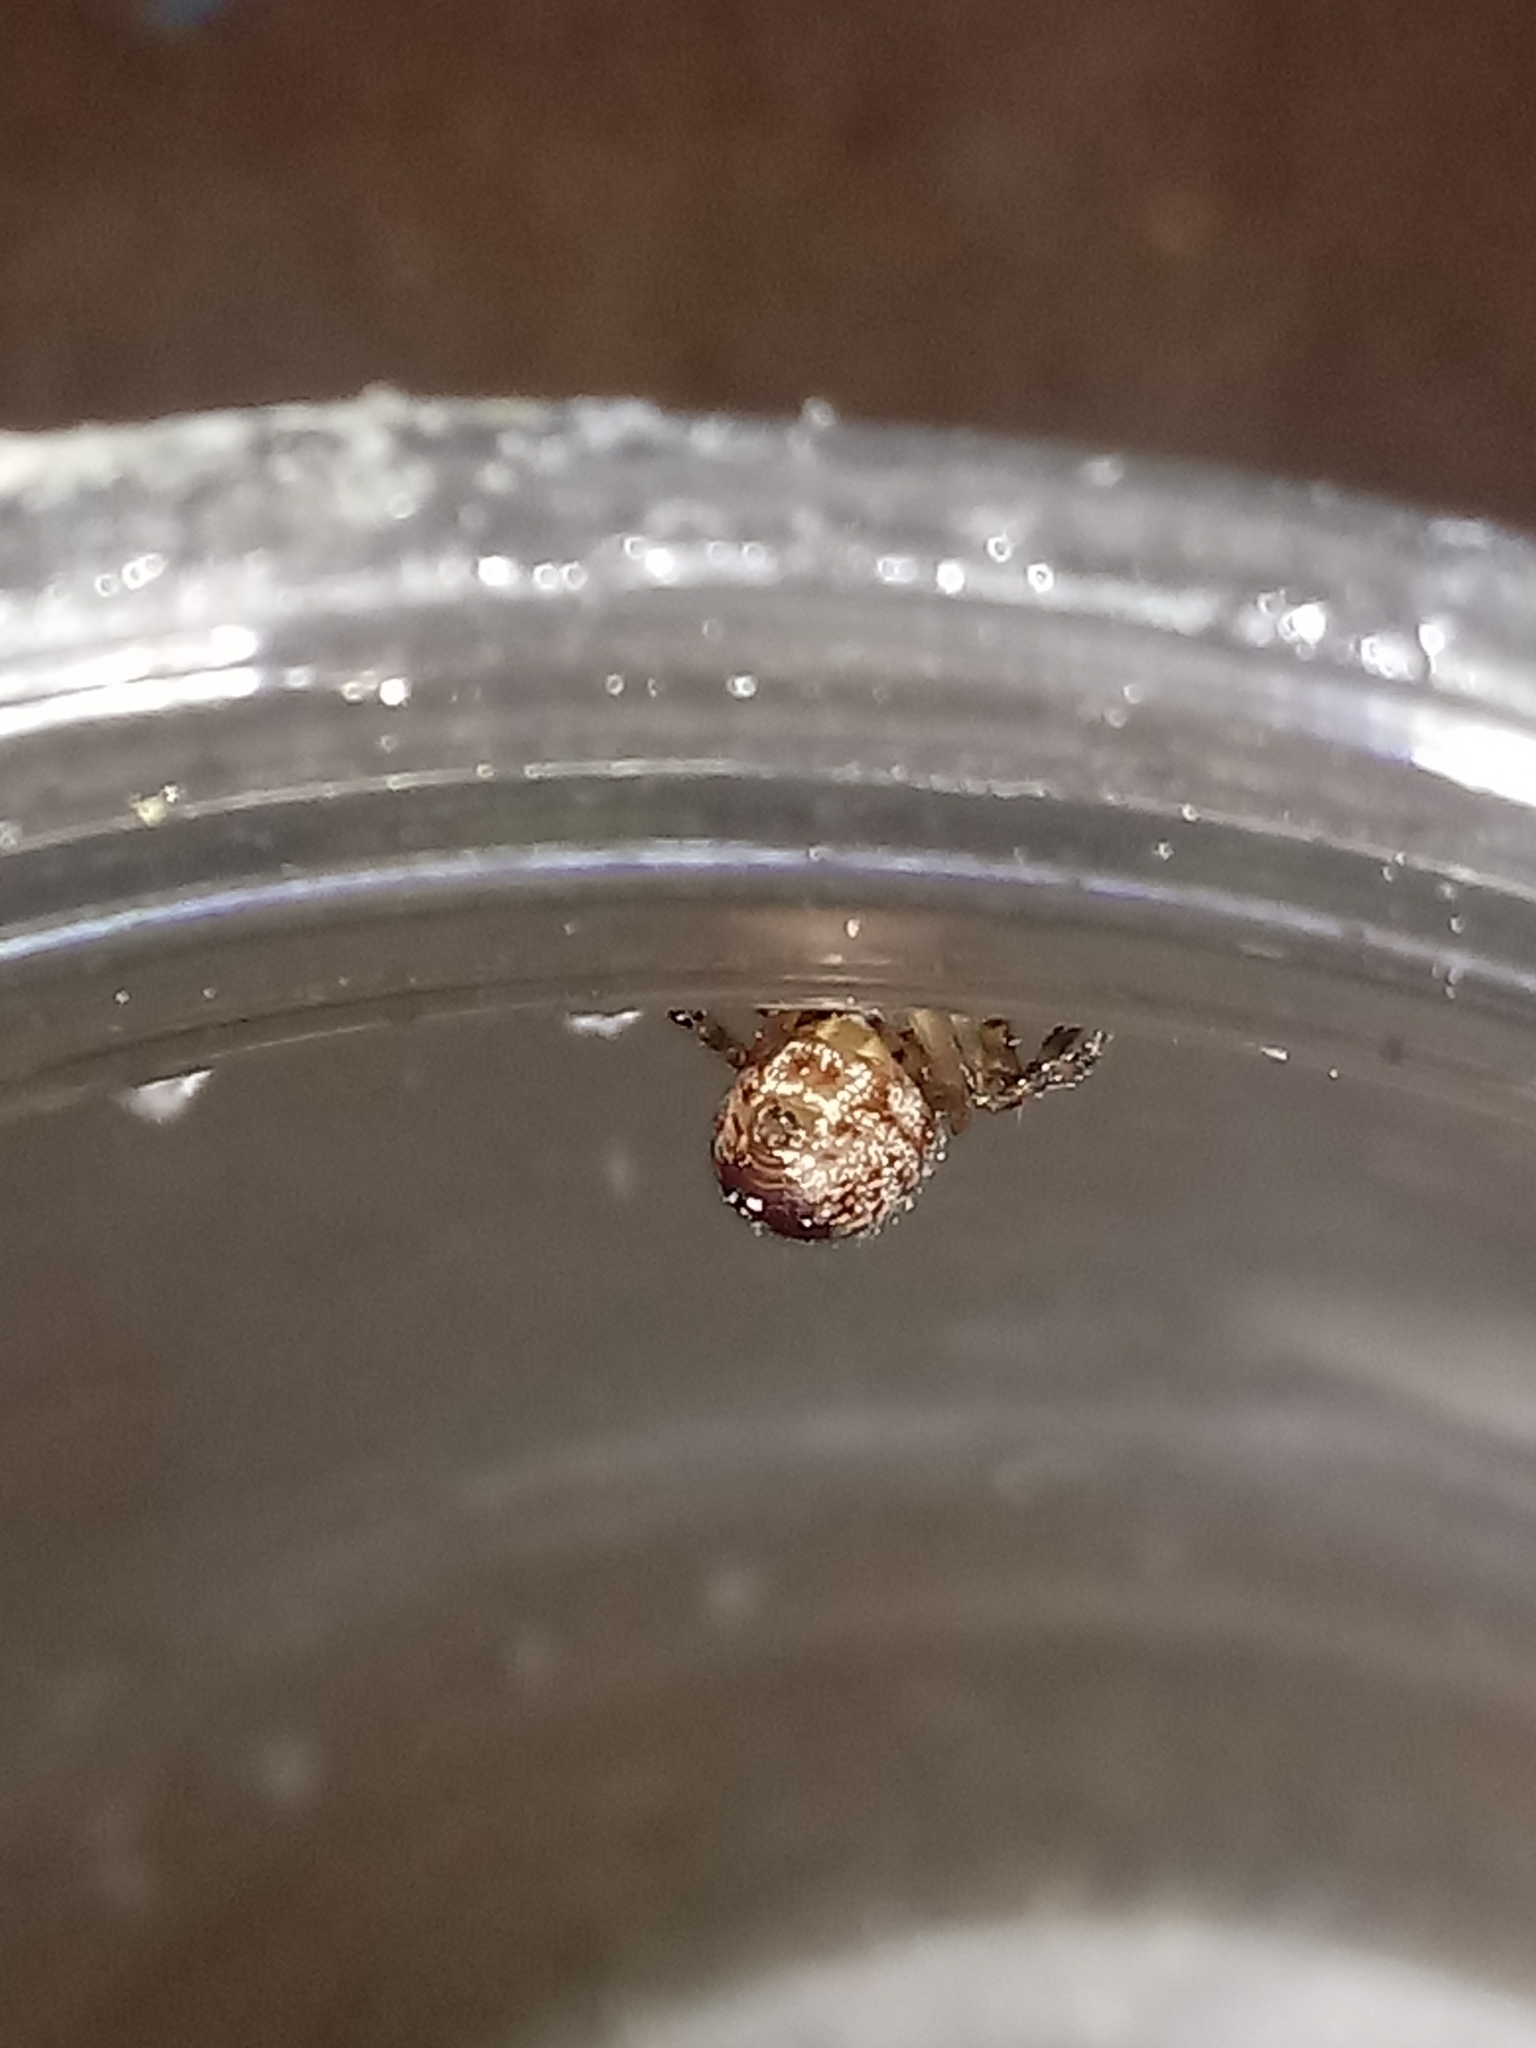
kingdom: Animalia
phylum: Arthropoda
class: Arachnida
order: Araneae
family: Theridiidae
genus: Steatoda
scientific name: Steatoda nobilis
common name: Cobweb weaver
